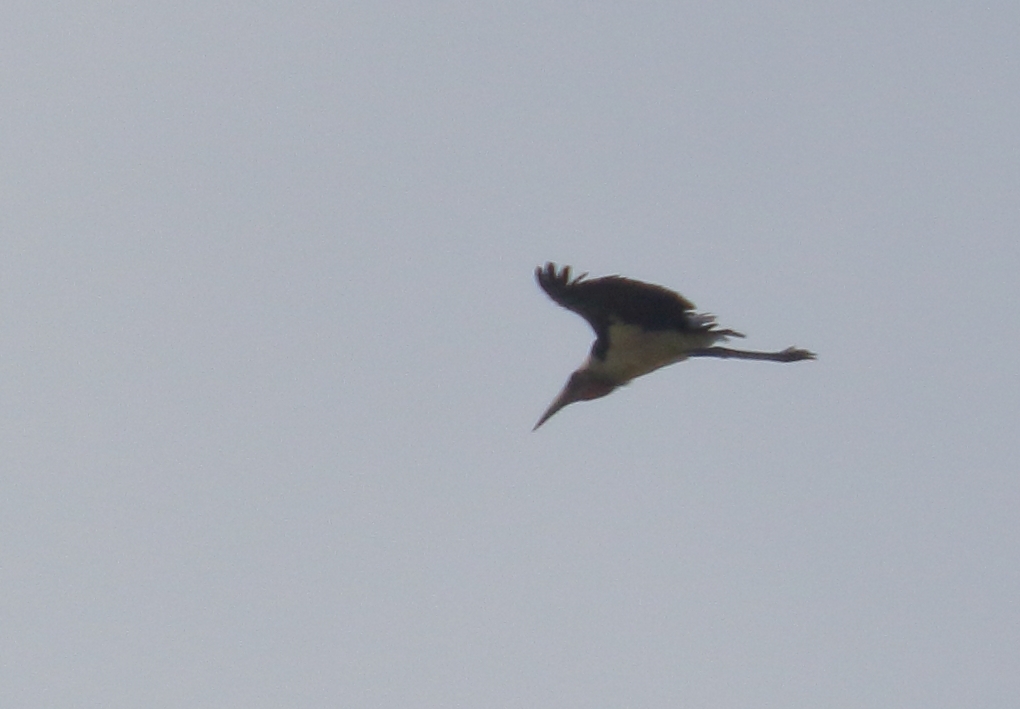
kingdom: Animalia
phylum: Chordata
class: Aves
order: Ciconiiformes
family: Ciconiidae
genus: Leptoptilos
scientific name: Leptoptilos crumenifer
